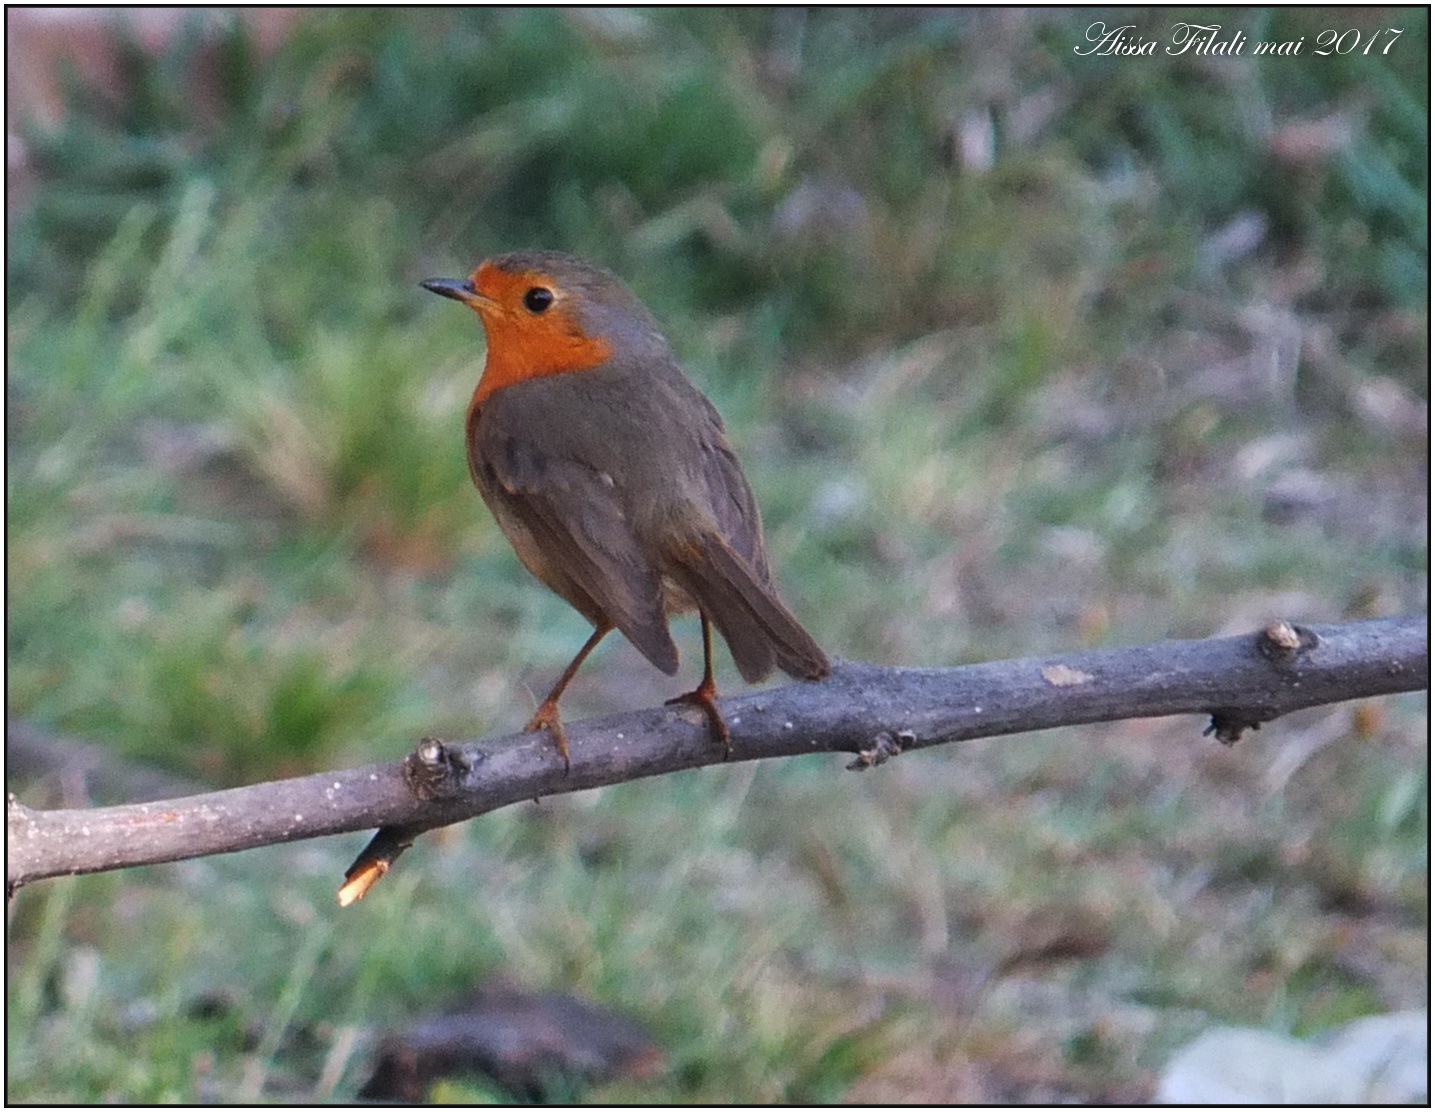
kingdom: Animalia
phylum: Chordata
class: Aves
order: Passeriformes
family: Muscicapidae
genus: Erithacus
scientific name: Erithacus rubecula
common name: European robin
